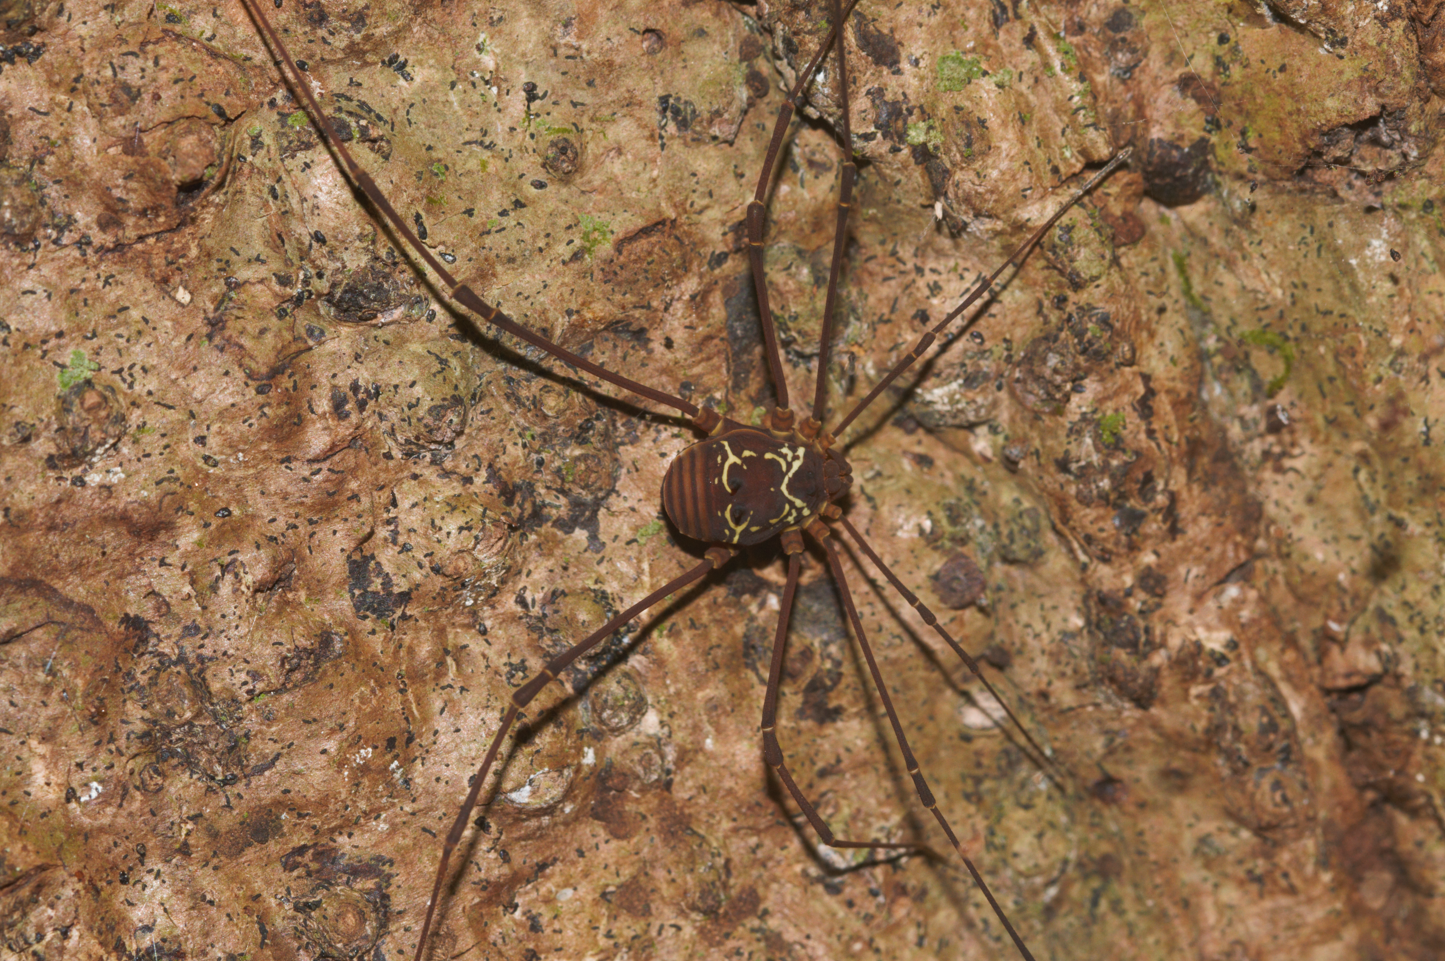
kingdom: Animalia
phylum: Arthropoda
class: Arachnida
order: Opiliones
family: Cosmetidae
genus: Paecilaema
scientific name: Paecilaema curvipes
